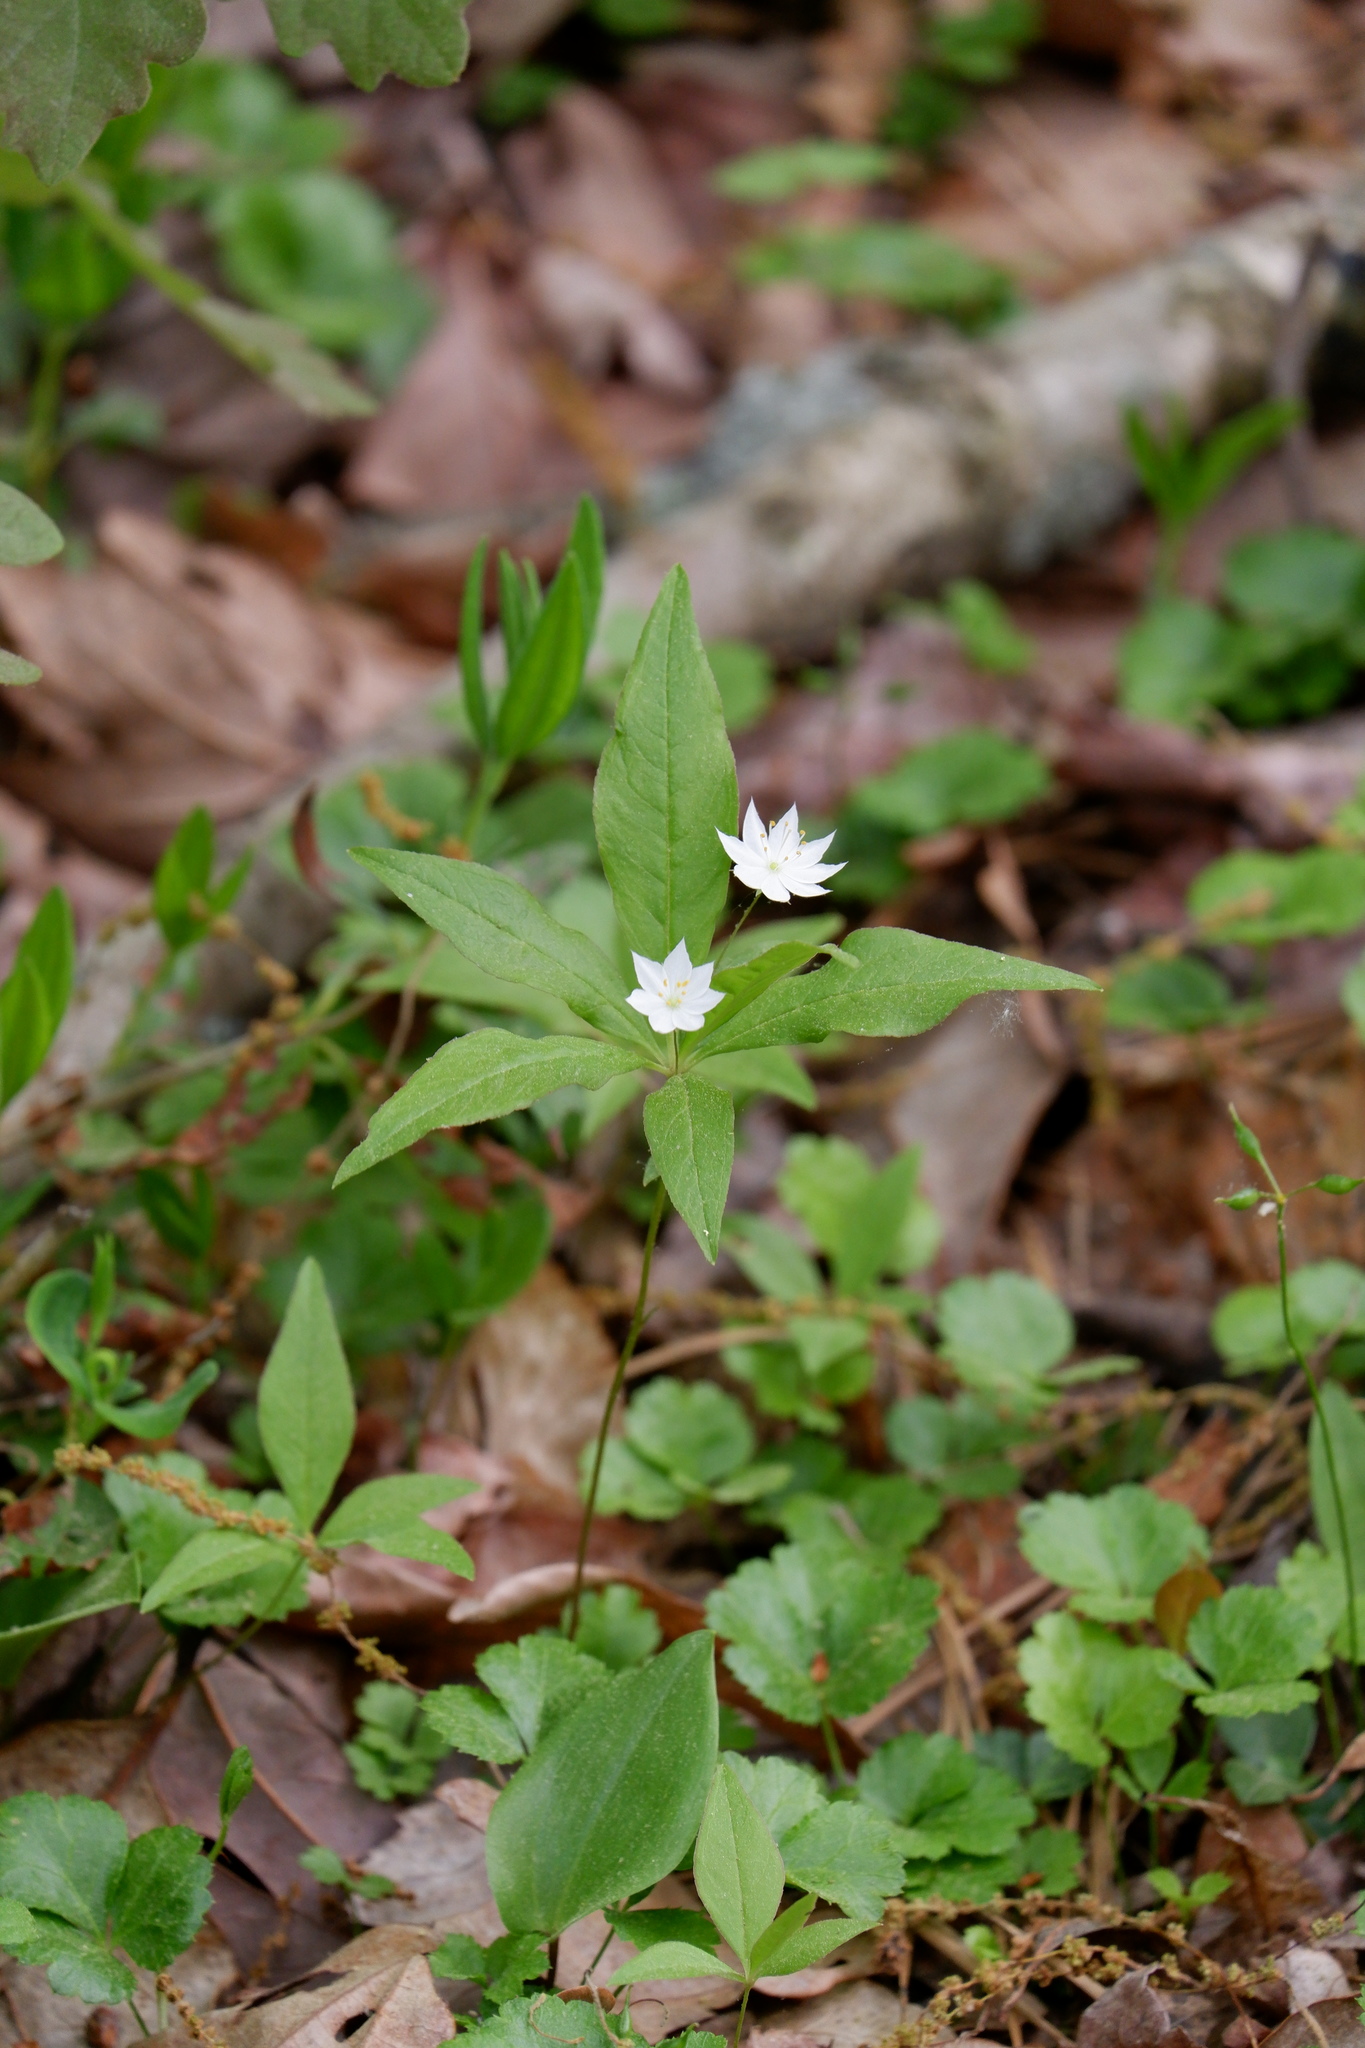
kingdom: Plantae
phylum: Tracheophyta
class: Magnoliopsida
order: Ericales
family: Primulaceae
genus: Lysimachia
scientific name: Lysimachia borealis
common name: American starflower
